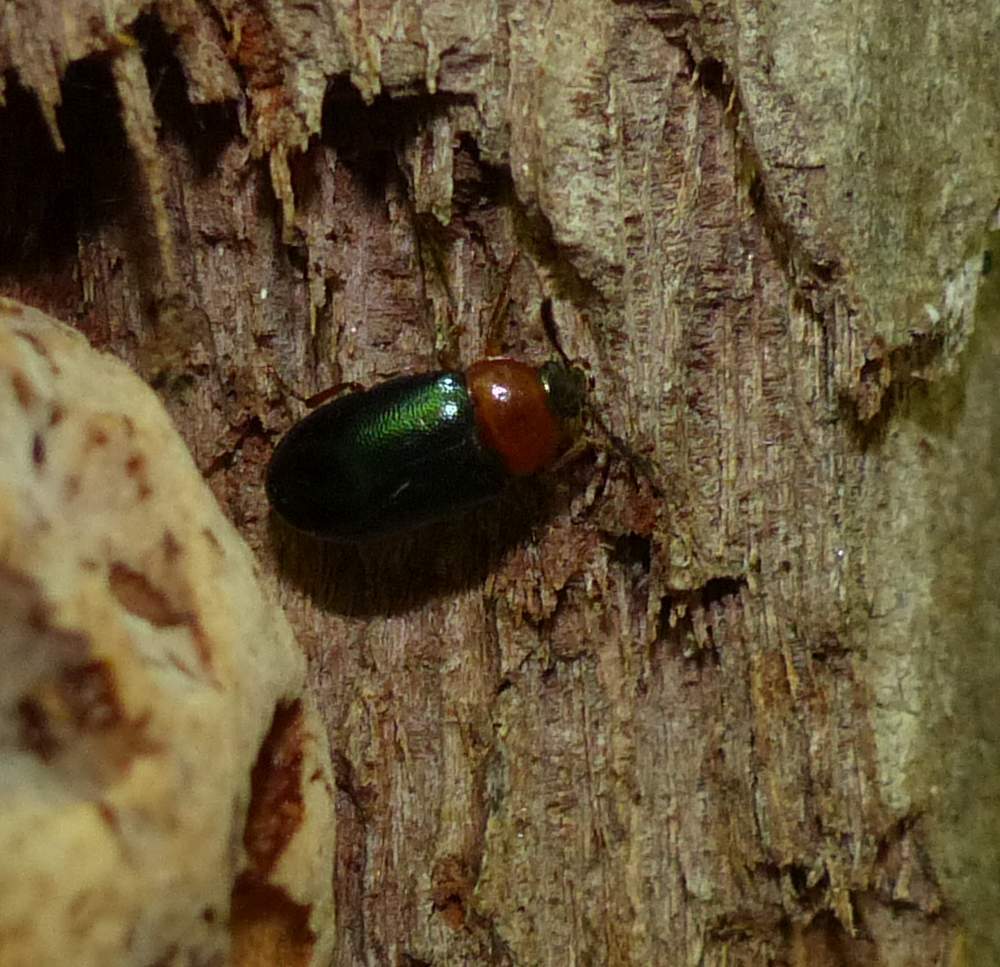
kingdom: Animalia
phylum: Arthropoda
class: Insecta
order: Coleoptera
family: Tetratomidae
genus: Tetratoma
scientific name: Tetratoma truncorum
